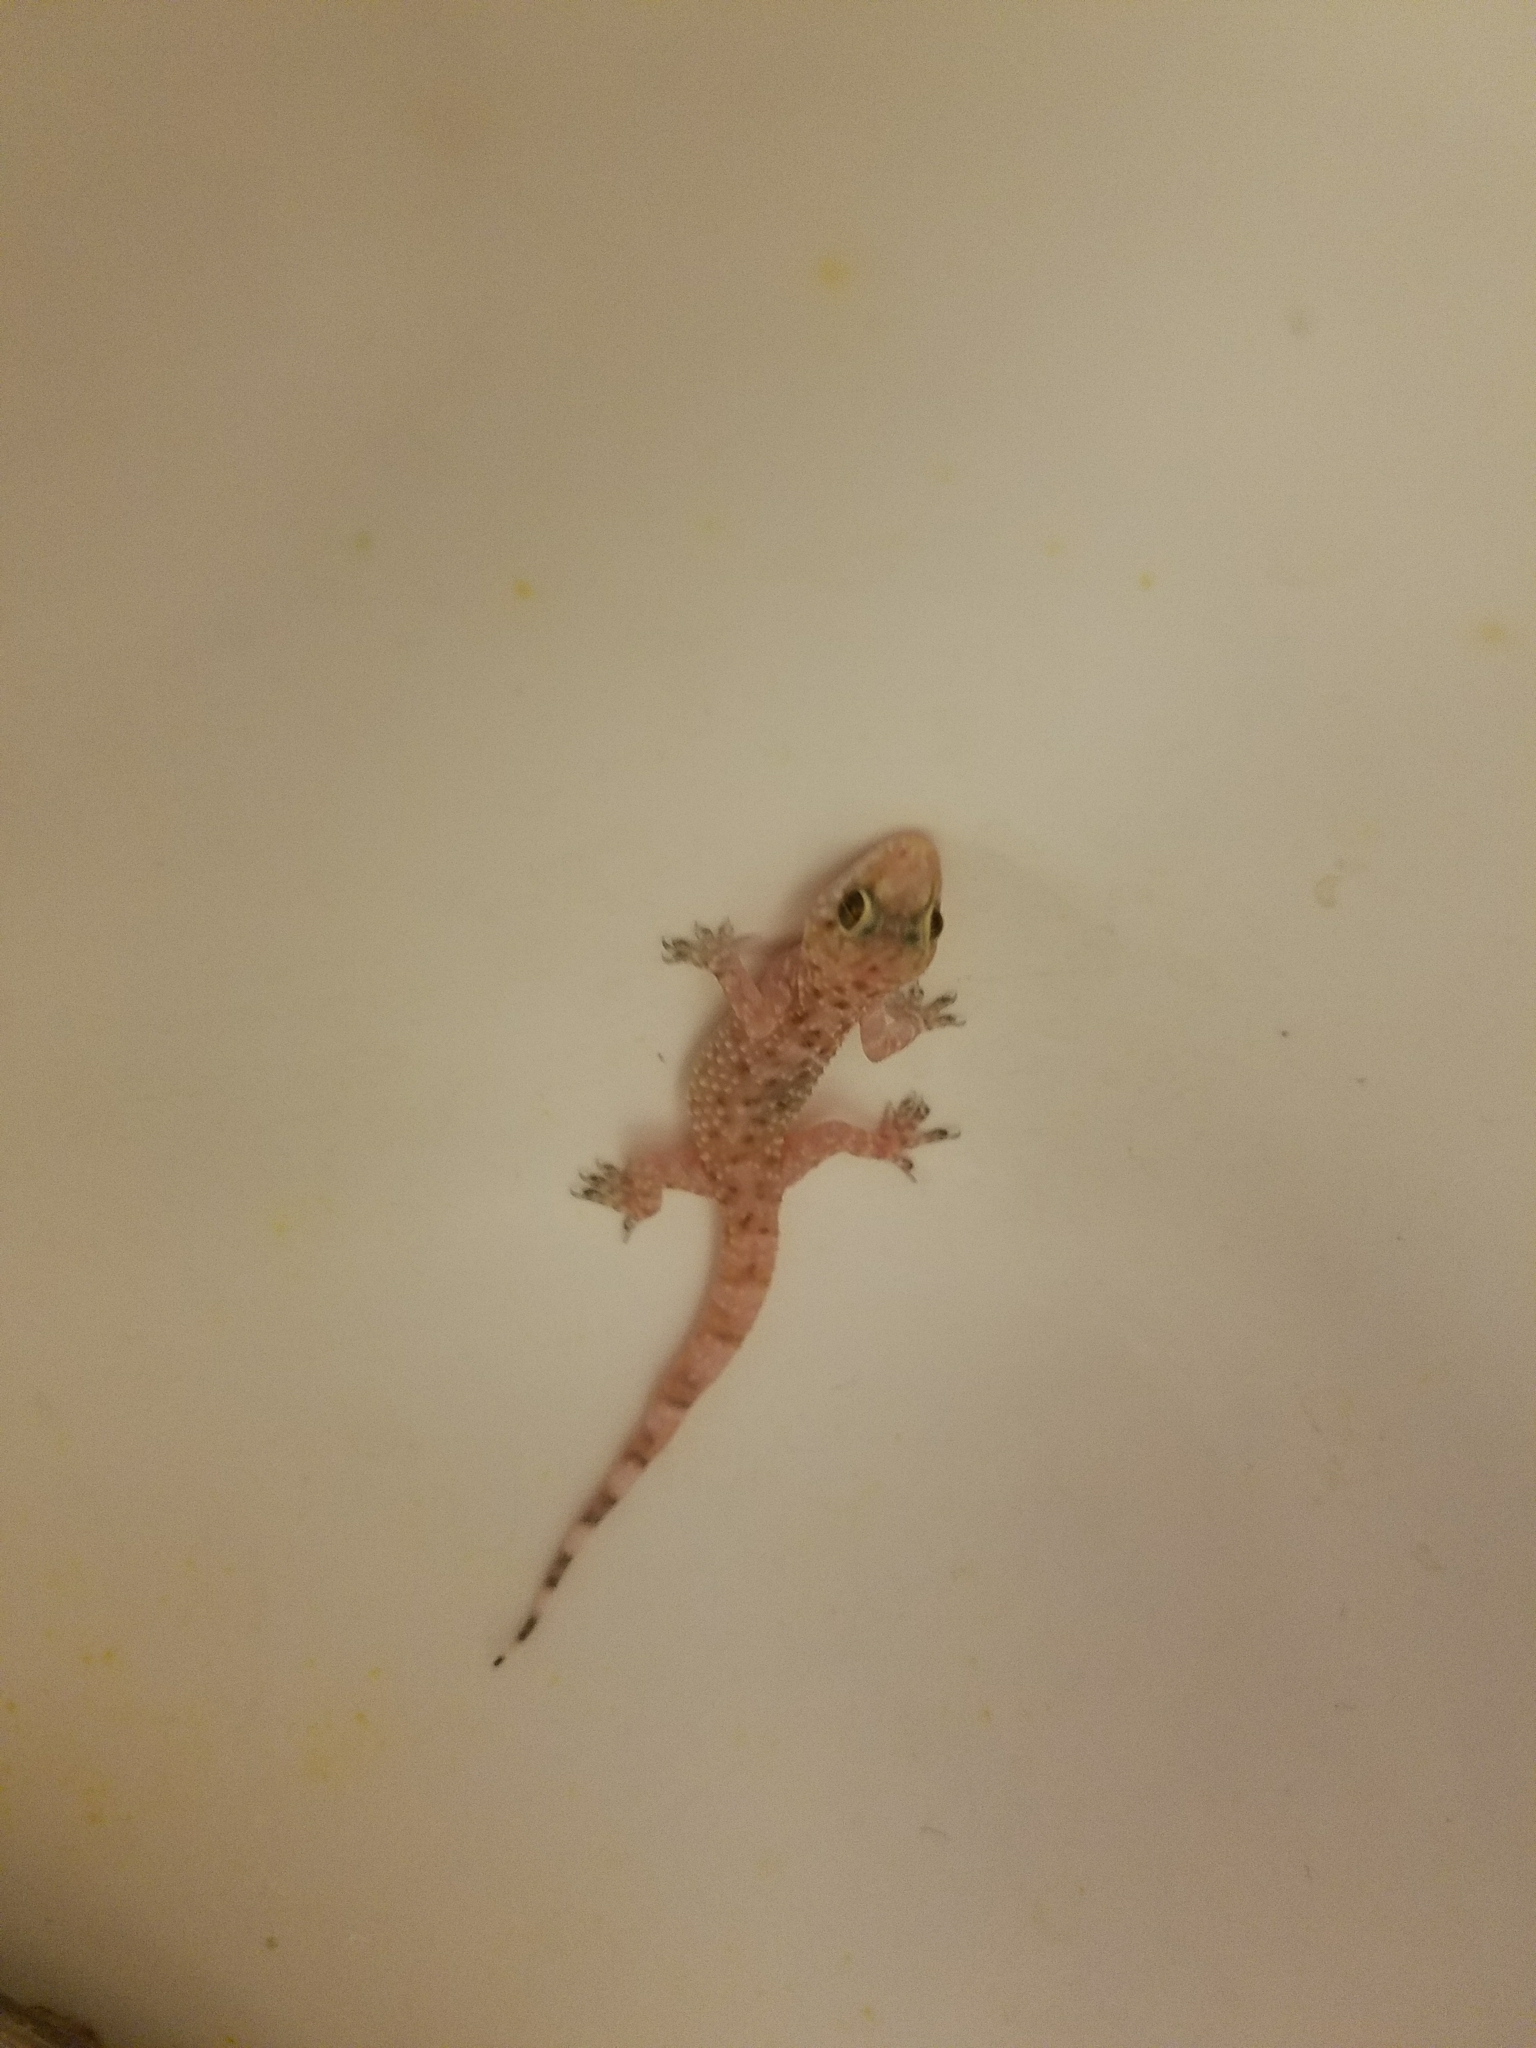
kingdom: Animalia
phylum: Chordata
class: Squamata
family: Gekkonidae
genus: Hemidactylus
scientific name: Hemidactylus turcicus
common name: Turkish gecko
